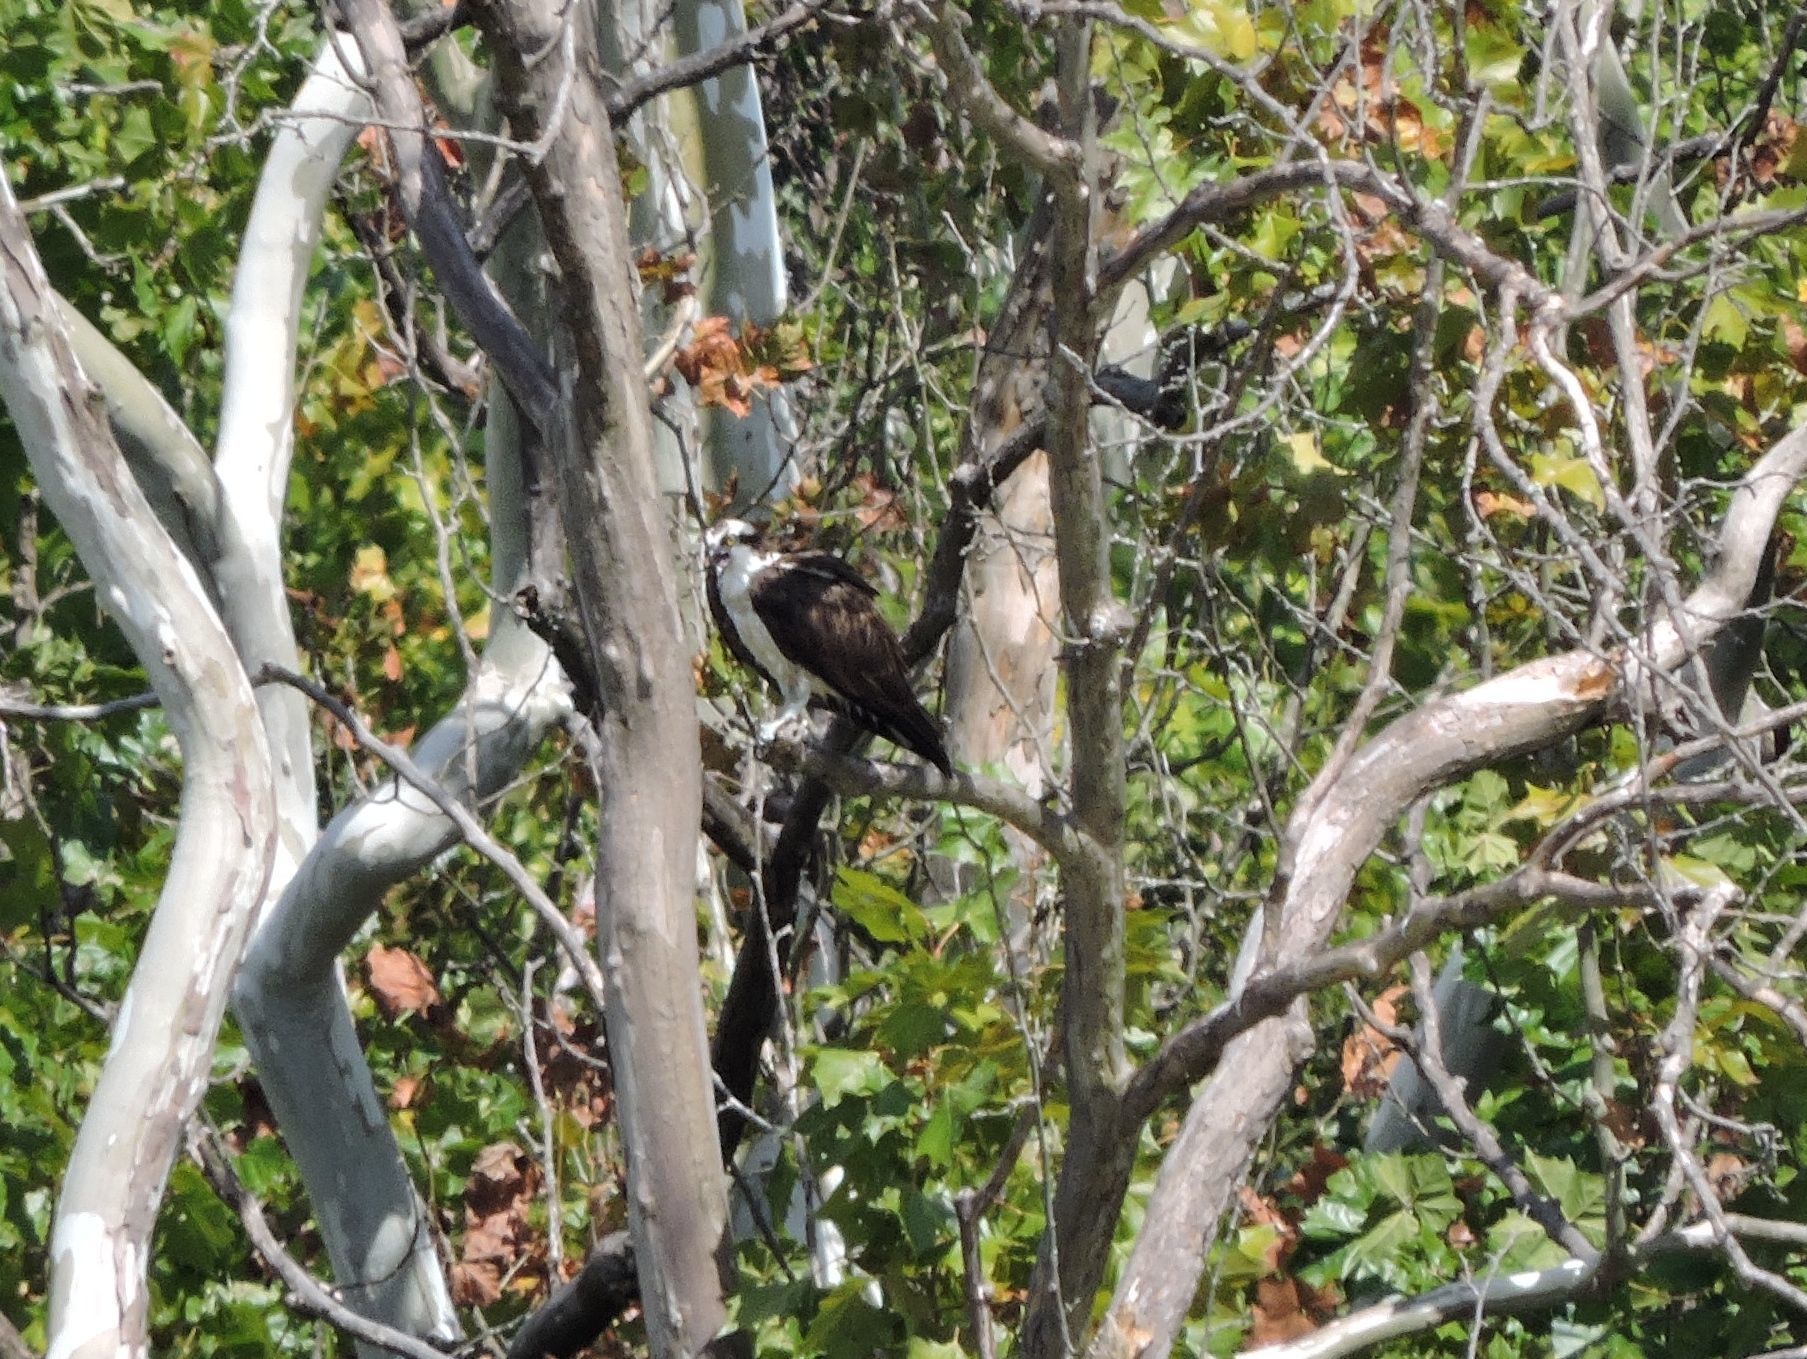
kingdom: Animalia
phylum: Chordata
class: Aves
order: Accipitriformes
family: Pandionidae
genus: Pandion
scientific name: Pandion haliaetus
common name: Osprey
